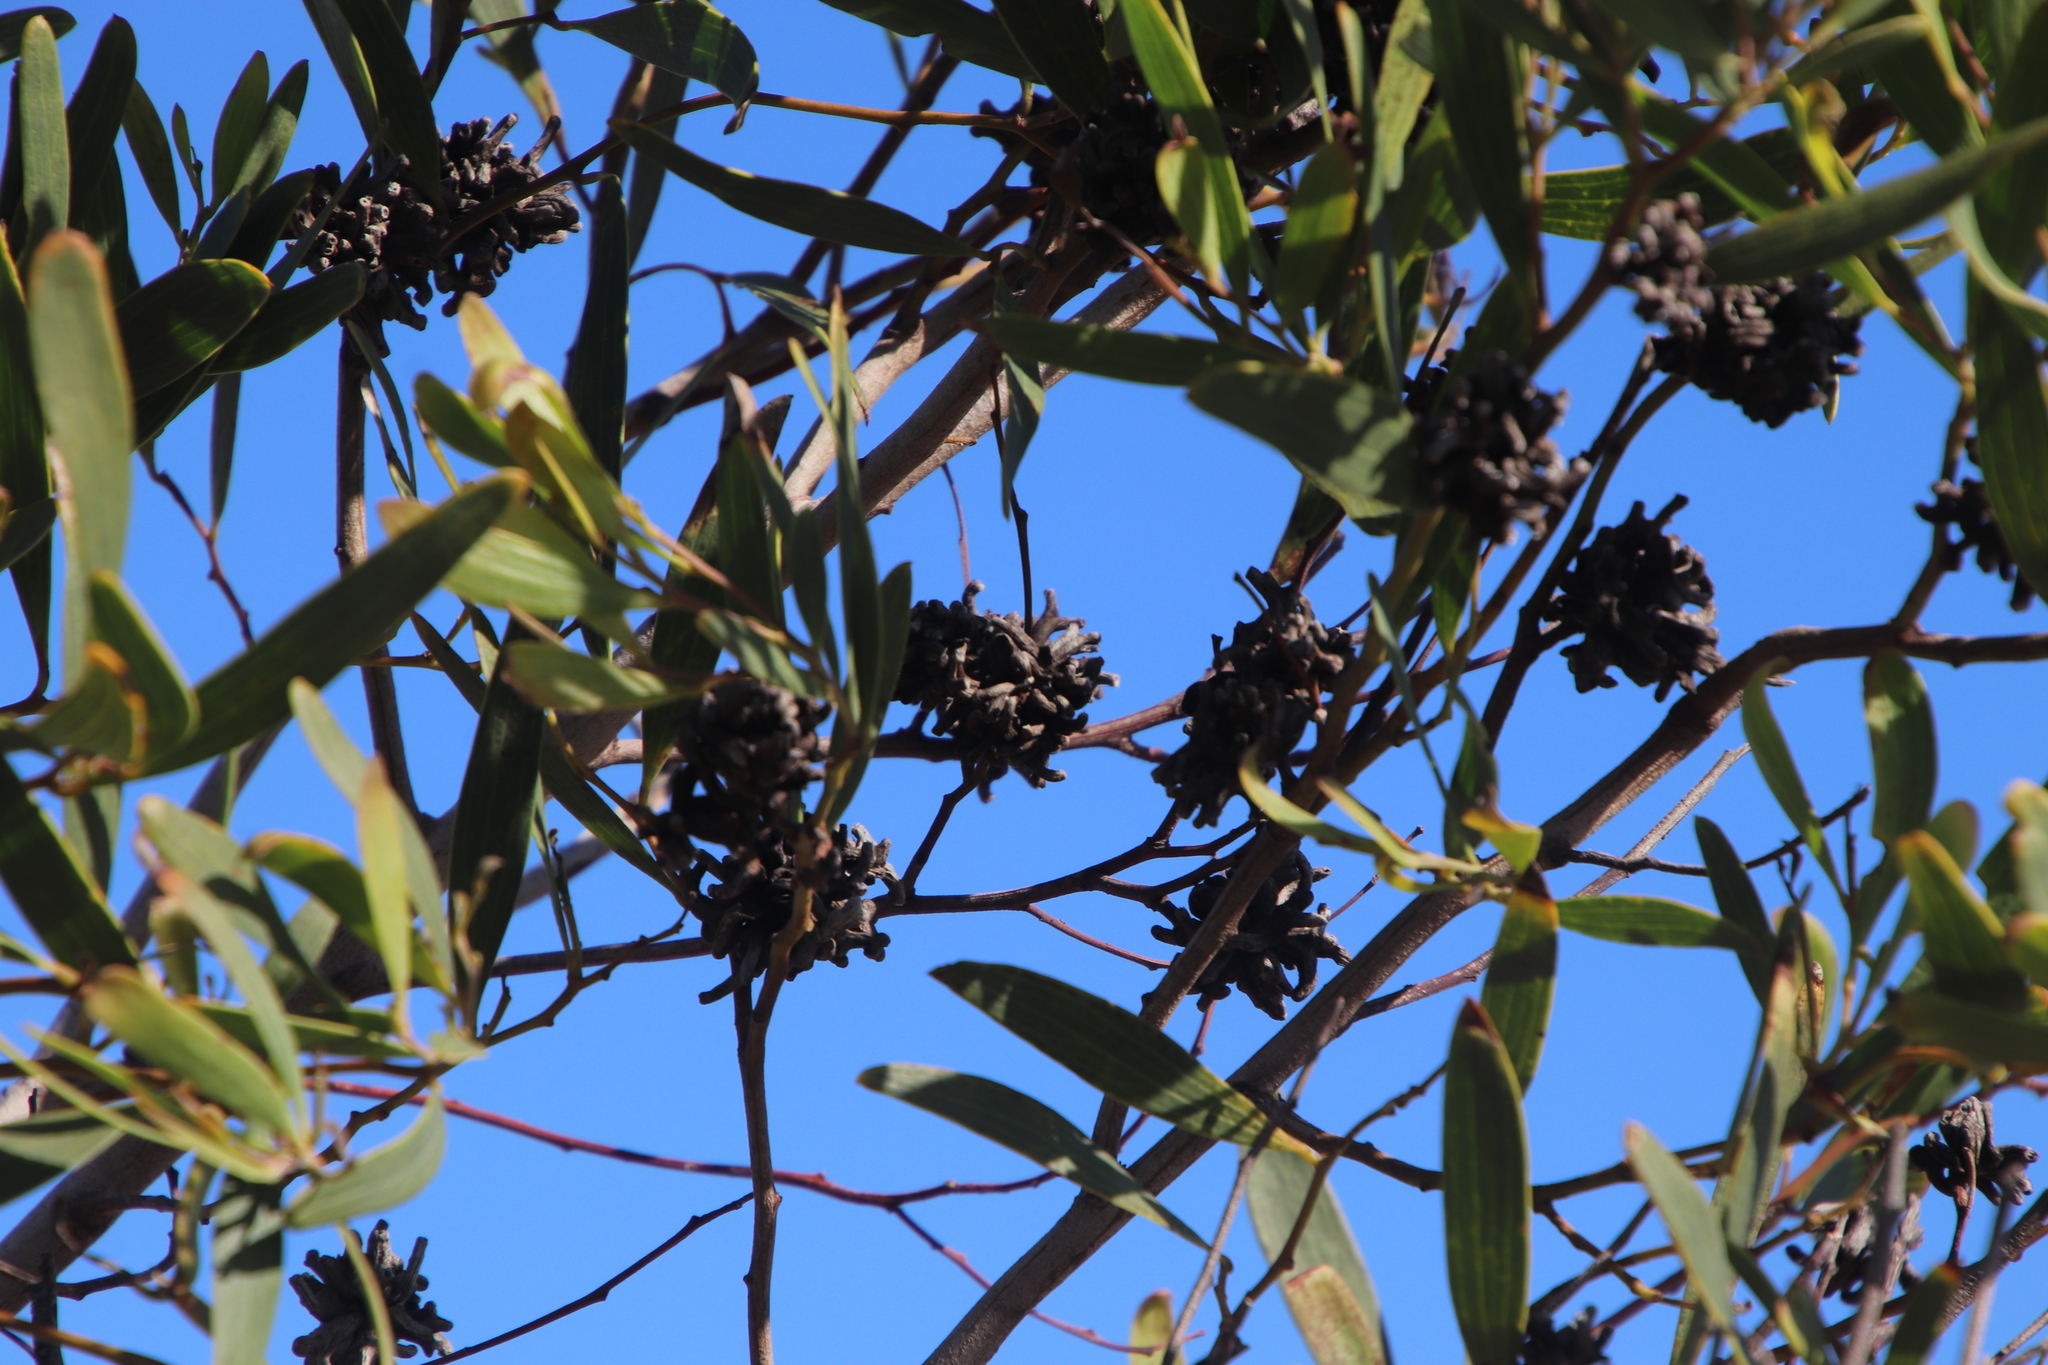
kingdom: Animalia
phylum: Arthropoda
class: Insecta
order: Diptera
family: Cecidomyiidae
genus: Dasineura
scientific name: Dasineura dielsi
